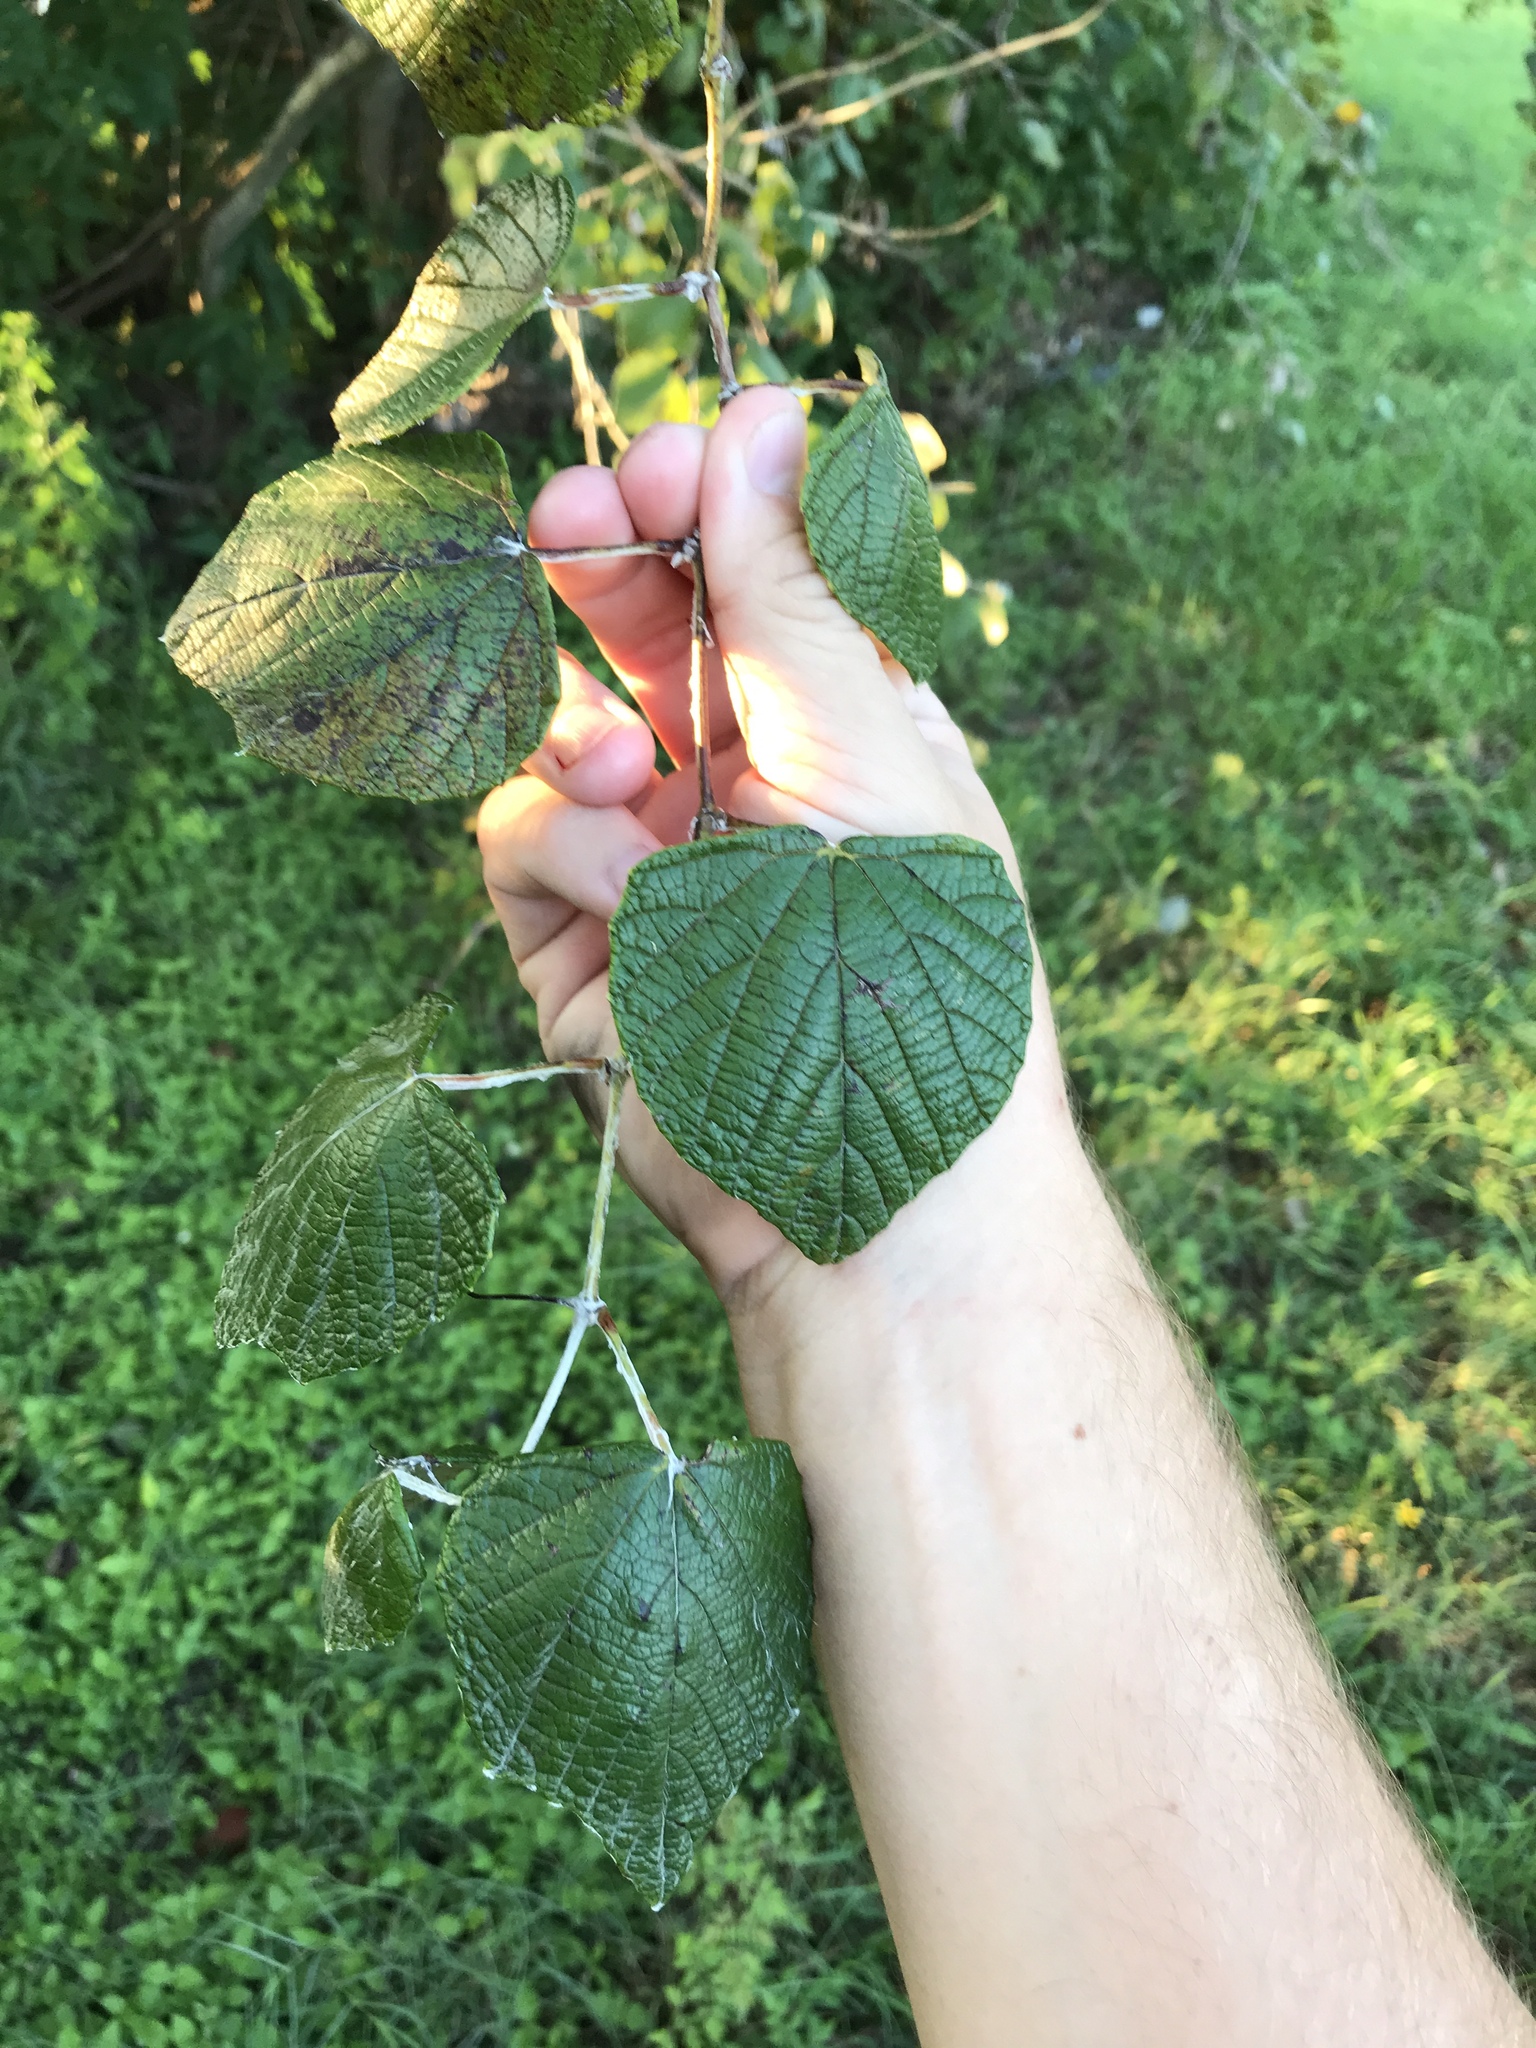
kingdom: Plantae
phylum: Tracheophyta
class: Magnoliopsida
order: Vitales
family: Vitaceae
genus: Vitis
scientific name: Vitis mustangensis
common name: Mustang grape
